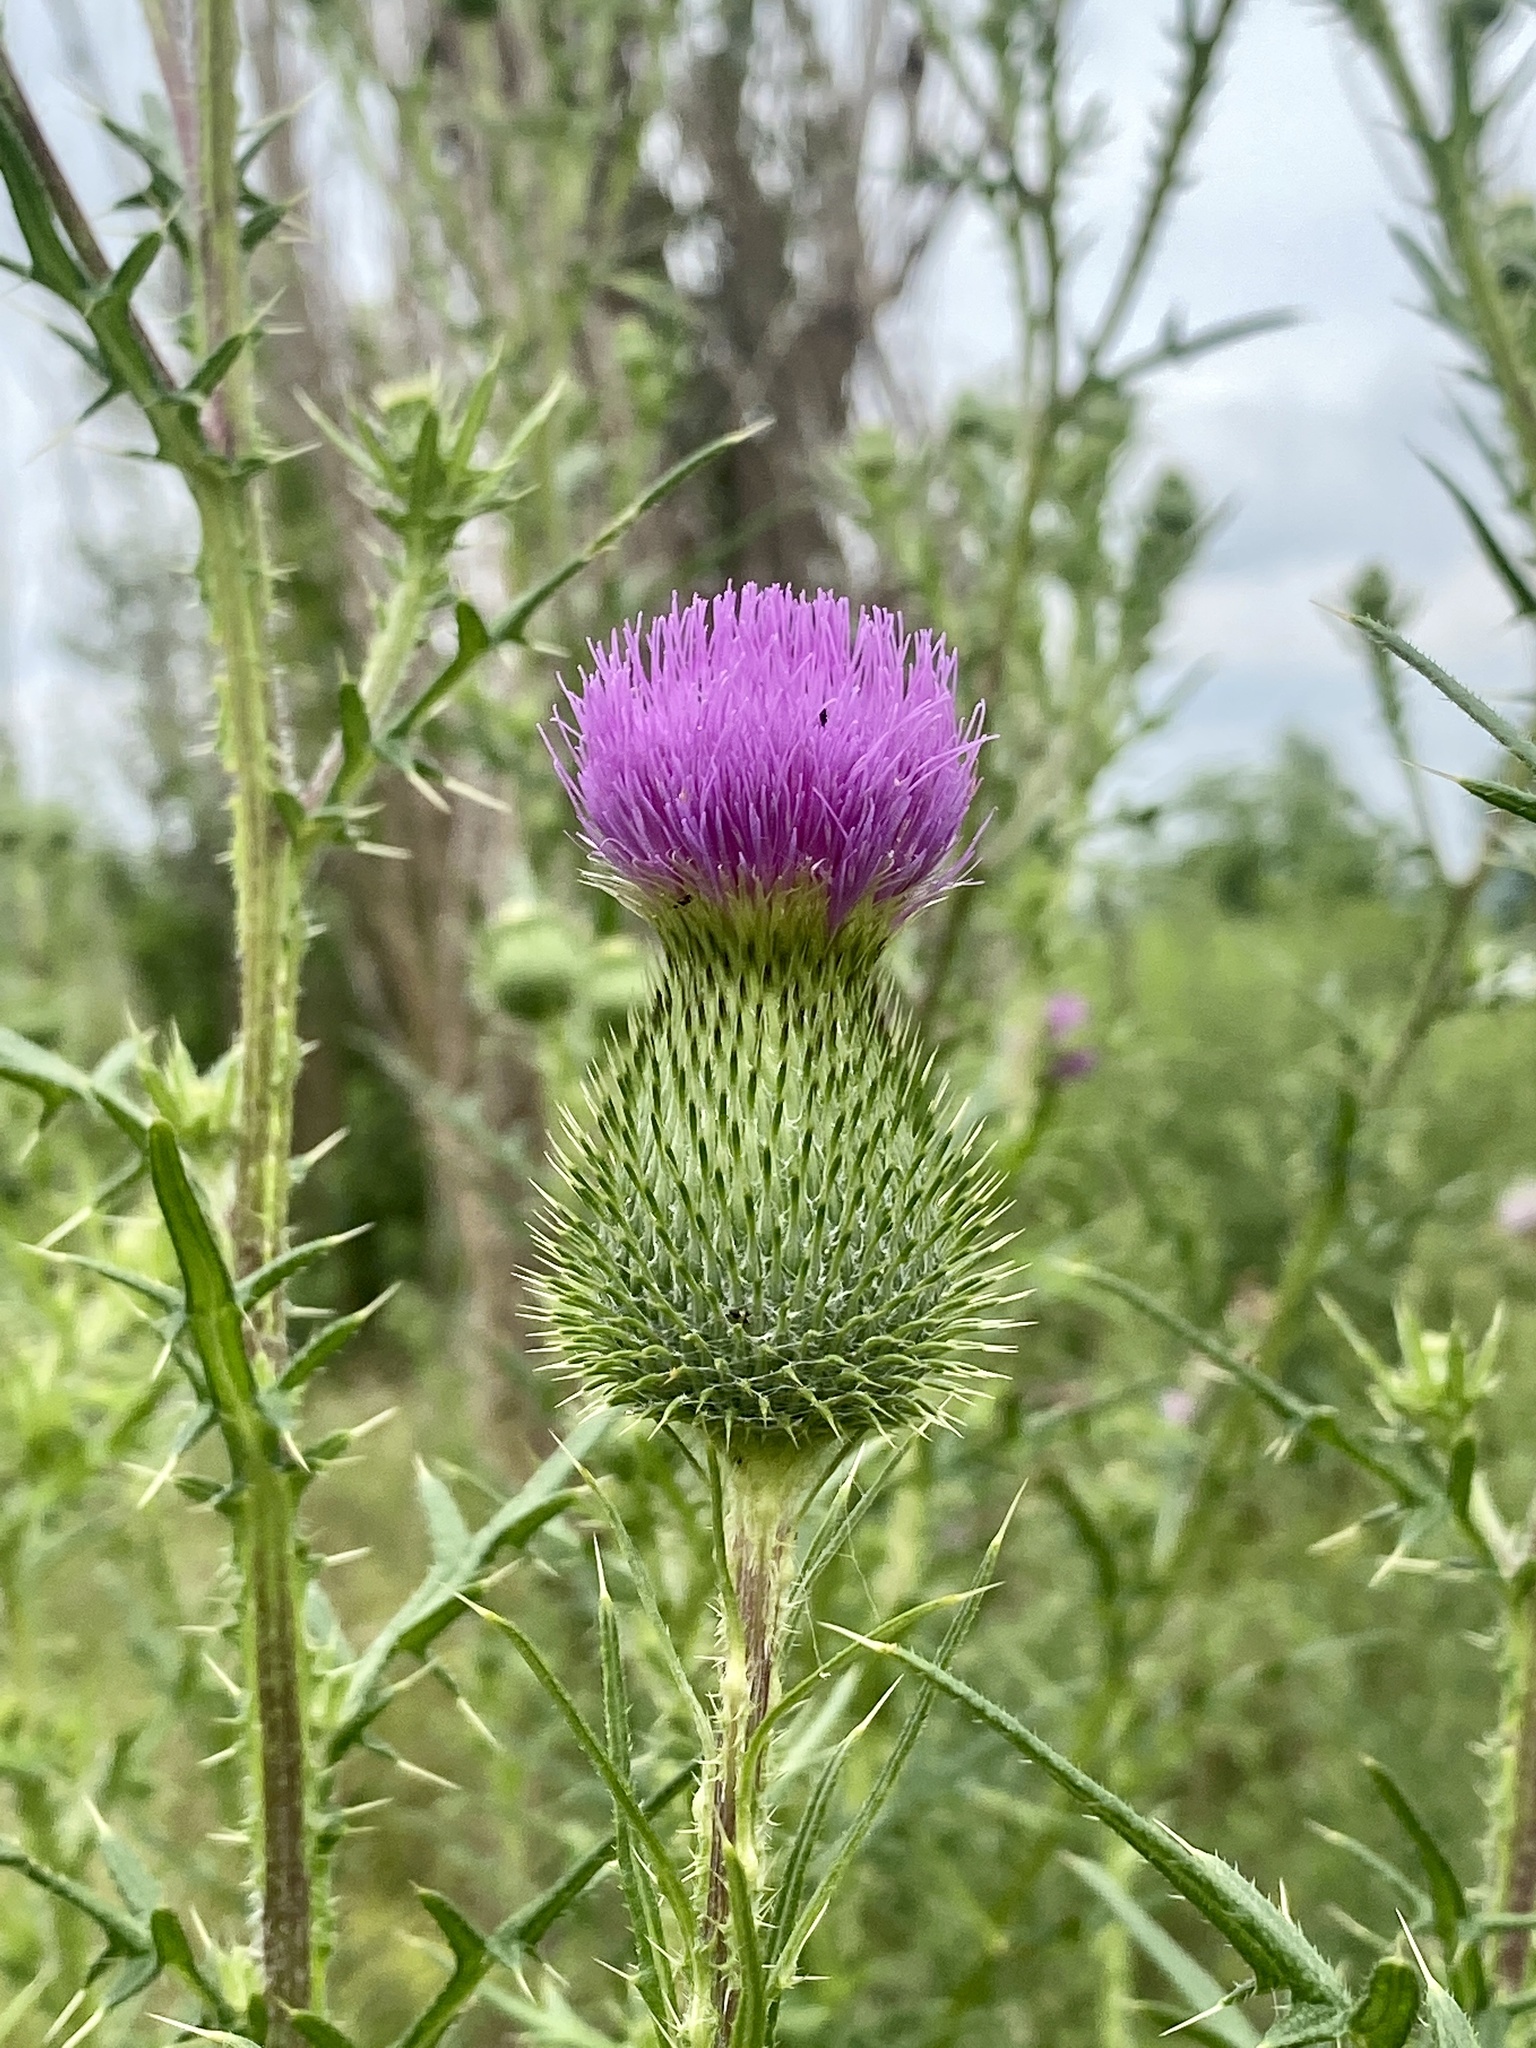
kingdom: Plantae
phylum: Tracheophyta
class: Magnoliopsida
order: Asterales
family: Asteraceae
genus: Cirsium
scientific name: Cirsium vulgare
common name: Bull thistle
